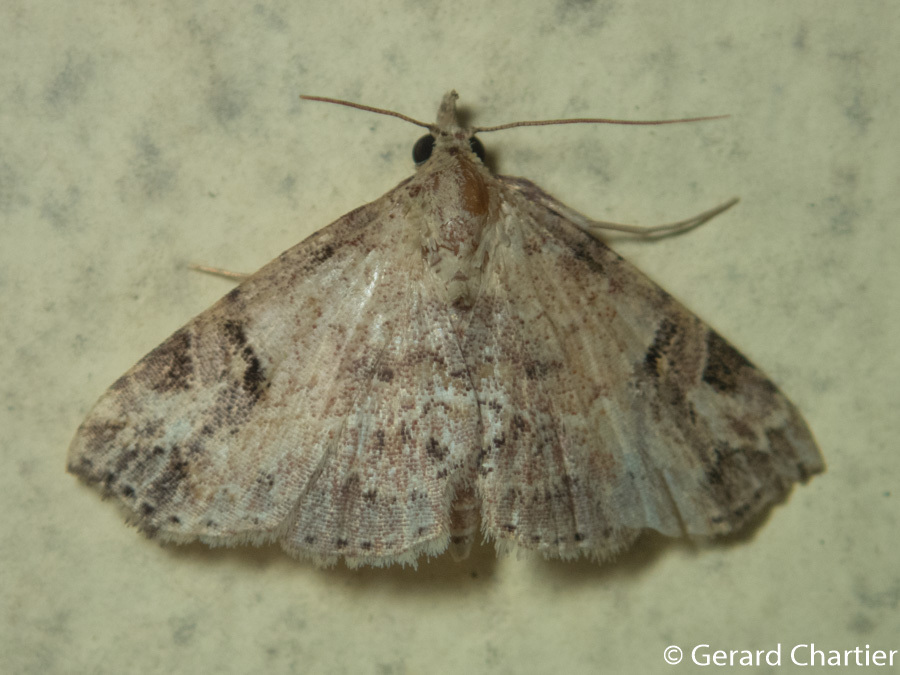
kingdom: Animalia
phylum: Arthropoda
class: Insecta
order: Lepidoptera
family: Erebidae
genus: Tipasa
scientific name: Tipasa renalis
